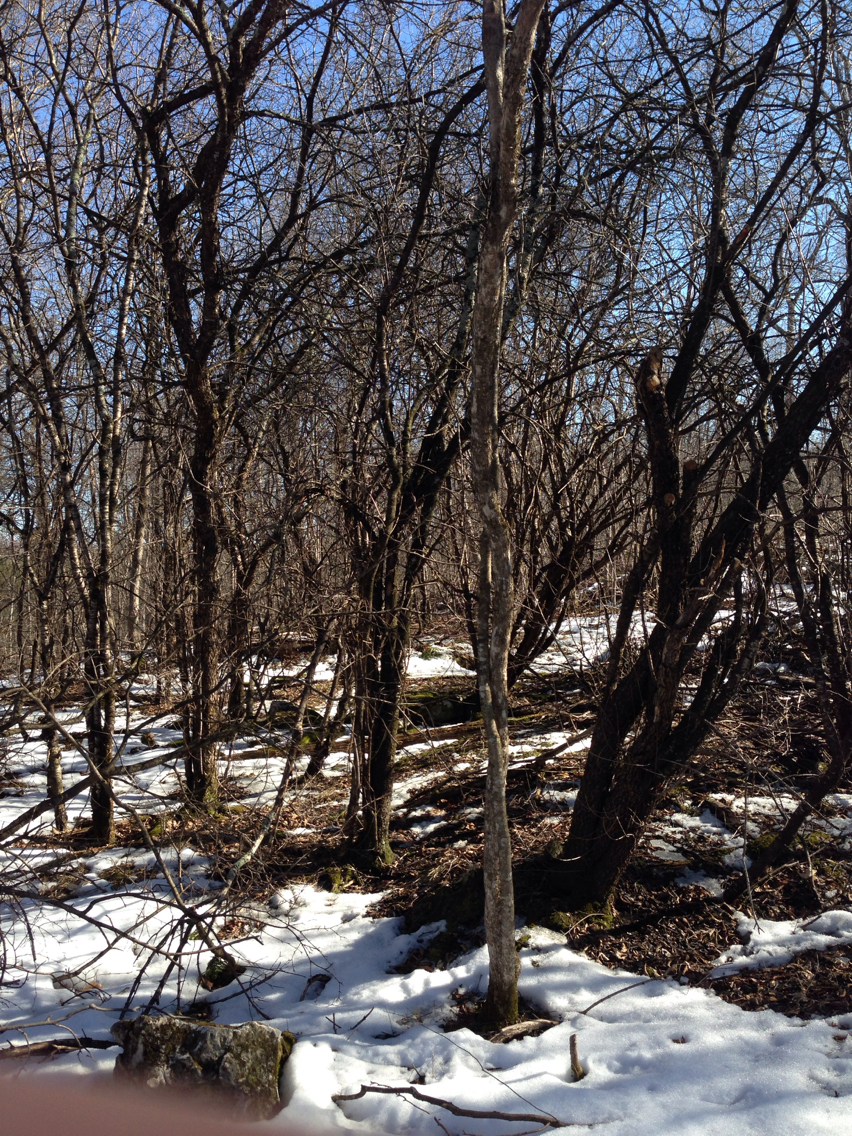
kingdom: Plantae
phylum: Tracheophyta
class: Magnoliopsida
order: Rosales
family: Rhamnaceae
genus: Rhamnus
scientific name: Rhamnus cathartica
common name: Common buckthorn
